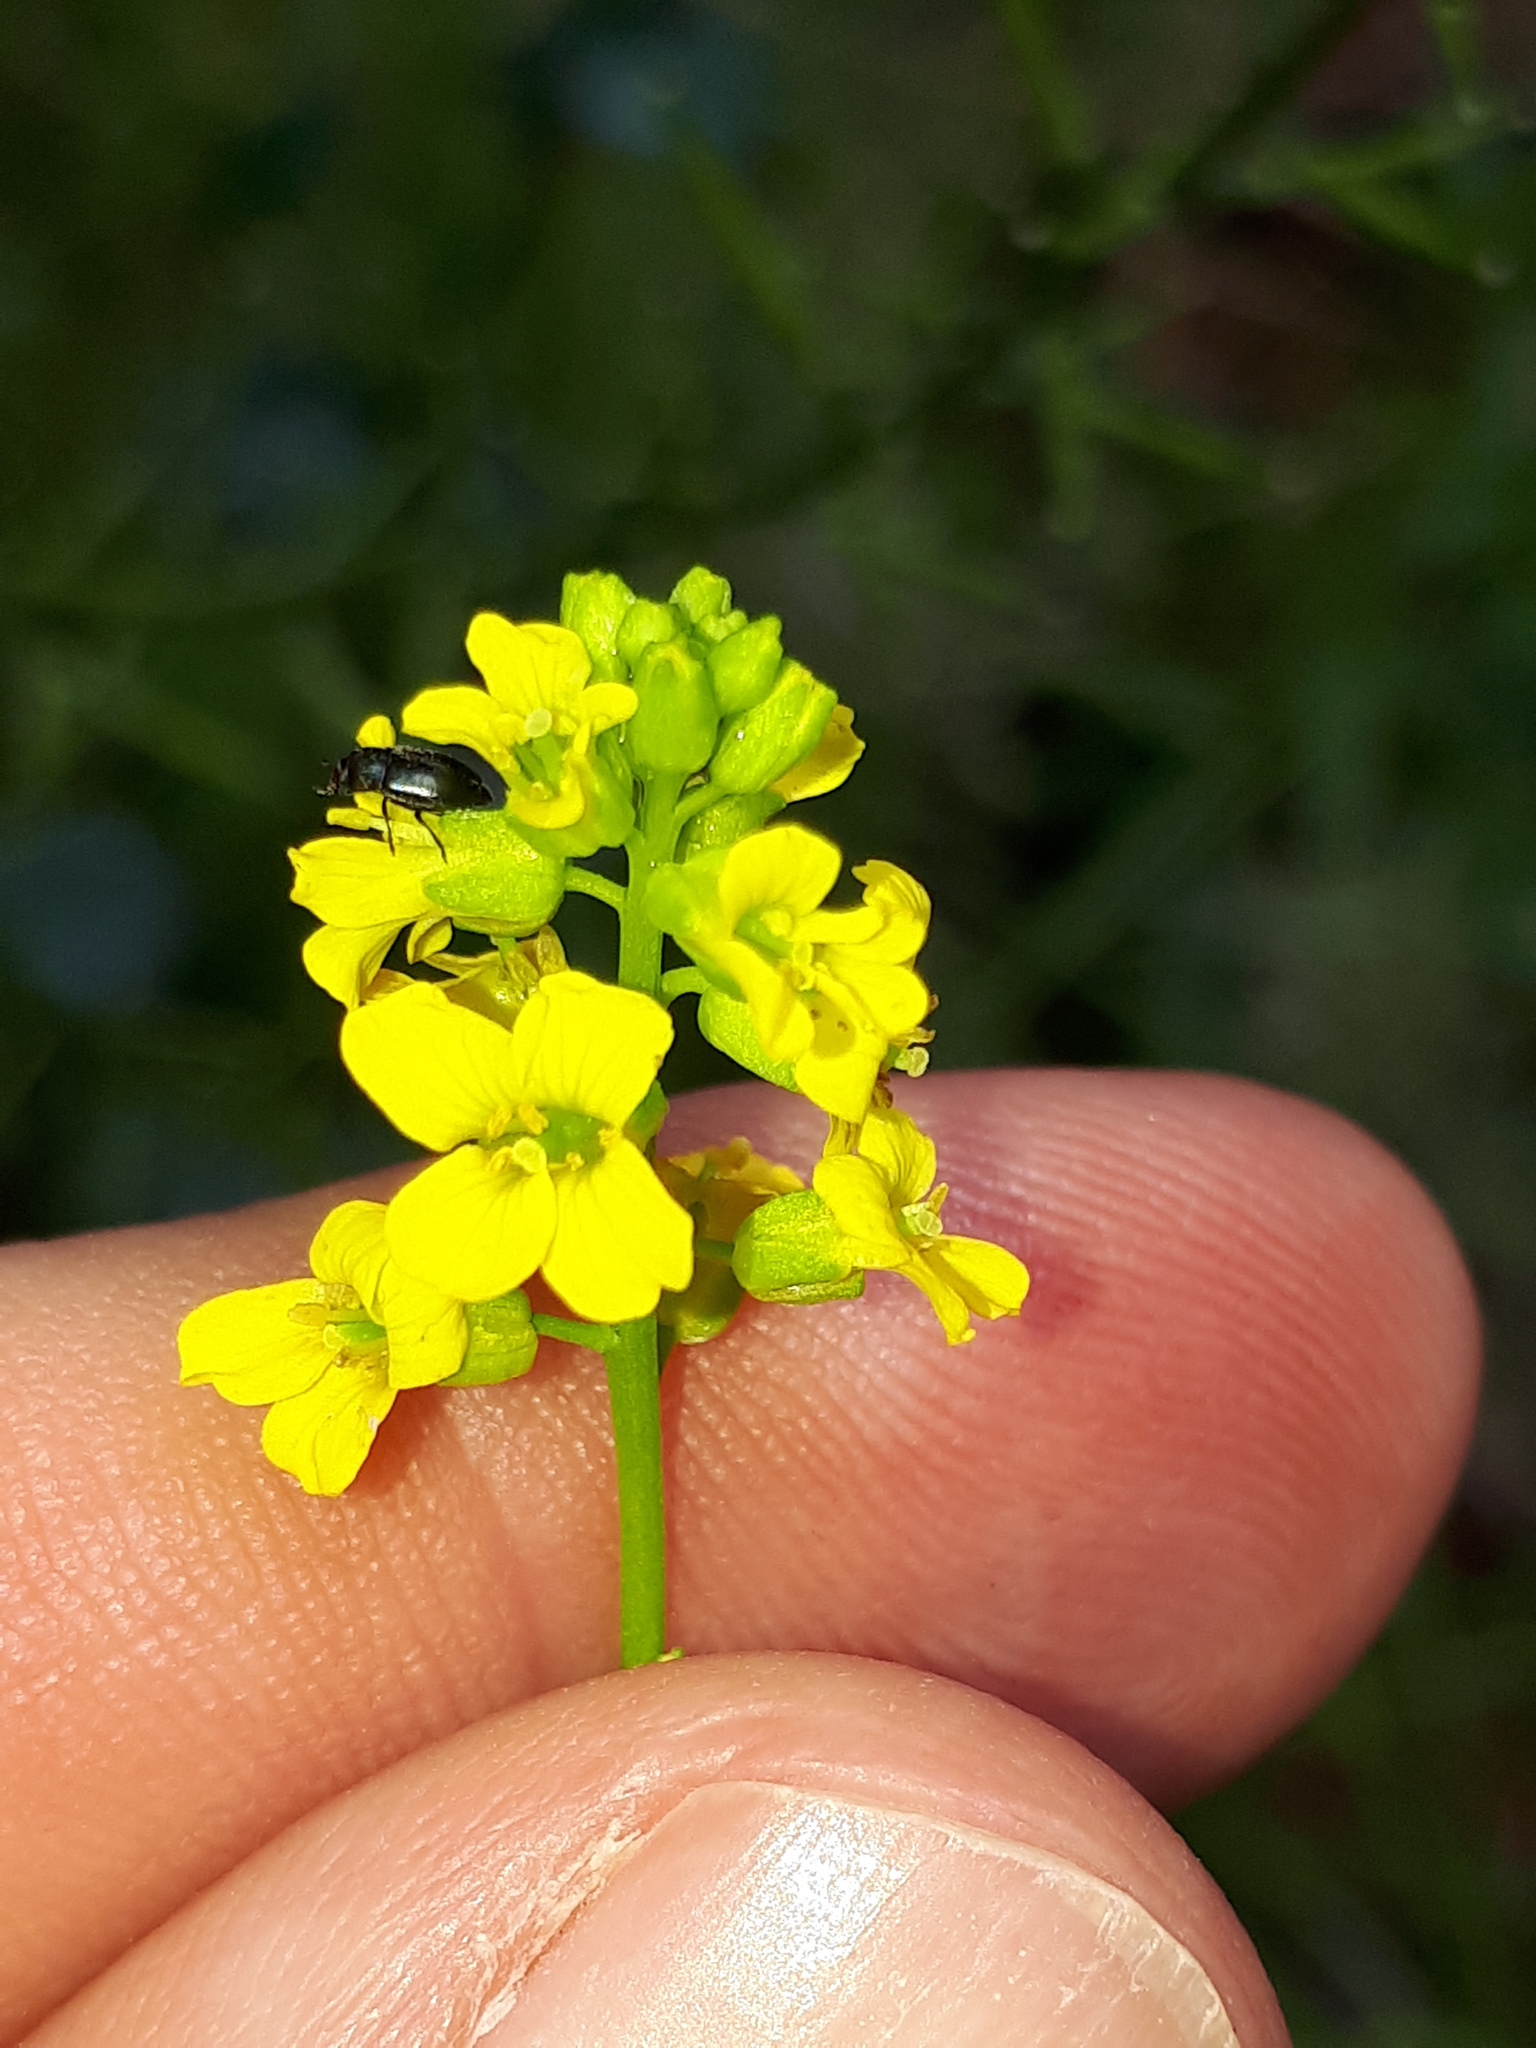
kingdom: Plantae
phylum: Tracheophyta
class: Magnoliopsida
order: Brassicales
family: Brassicaceae
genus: Barbarea
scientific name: Barbarea vulgaris
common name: Cressy-greens
